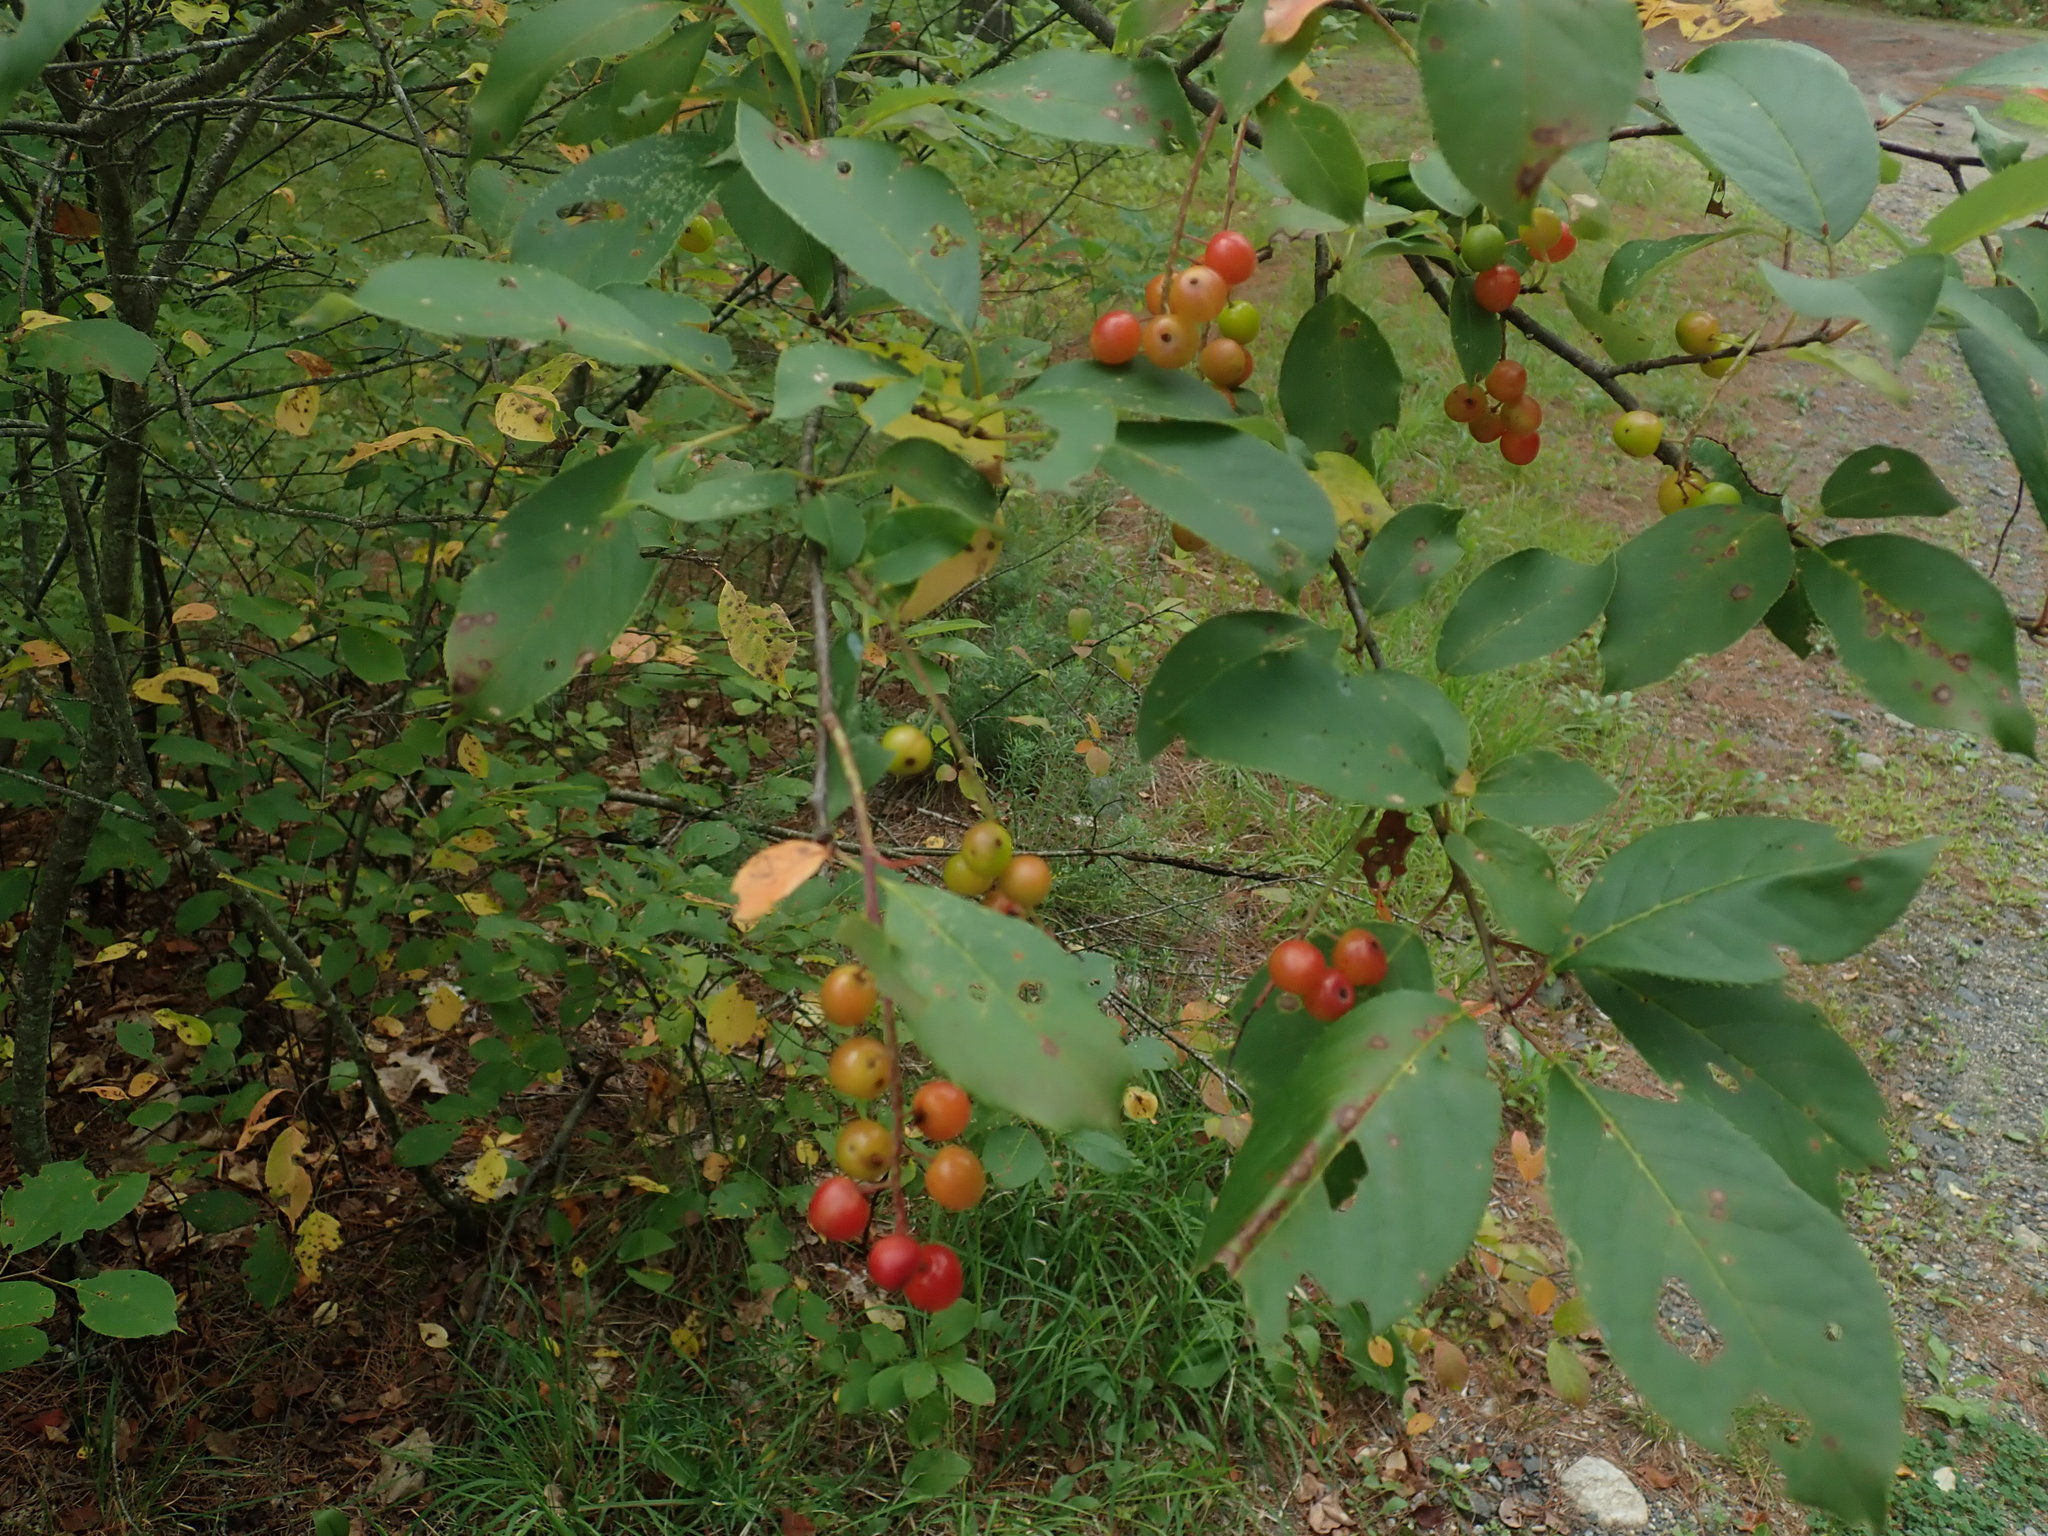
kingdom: Plantae
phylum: Tracheophyta
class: Magnoliopsida
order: Rosales
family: Rosaceae
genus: Prunus
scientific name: Prunus virginiana
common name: Chokecherry
